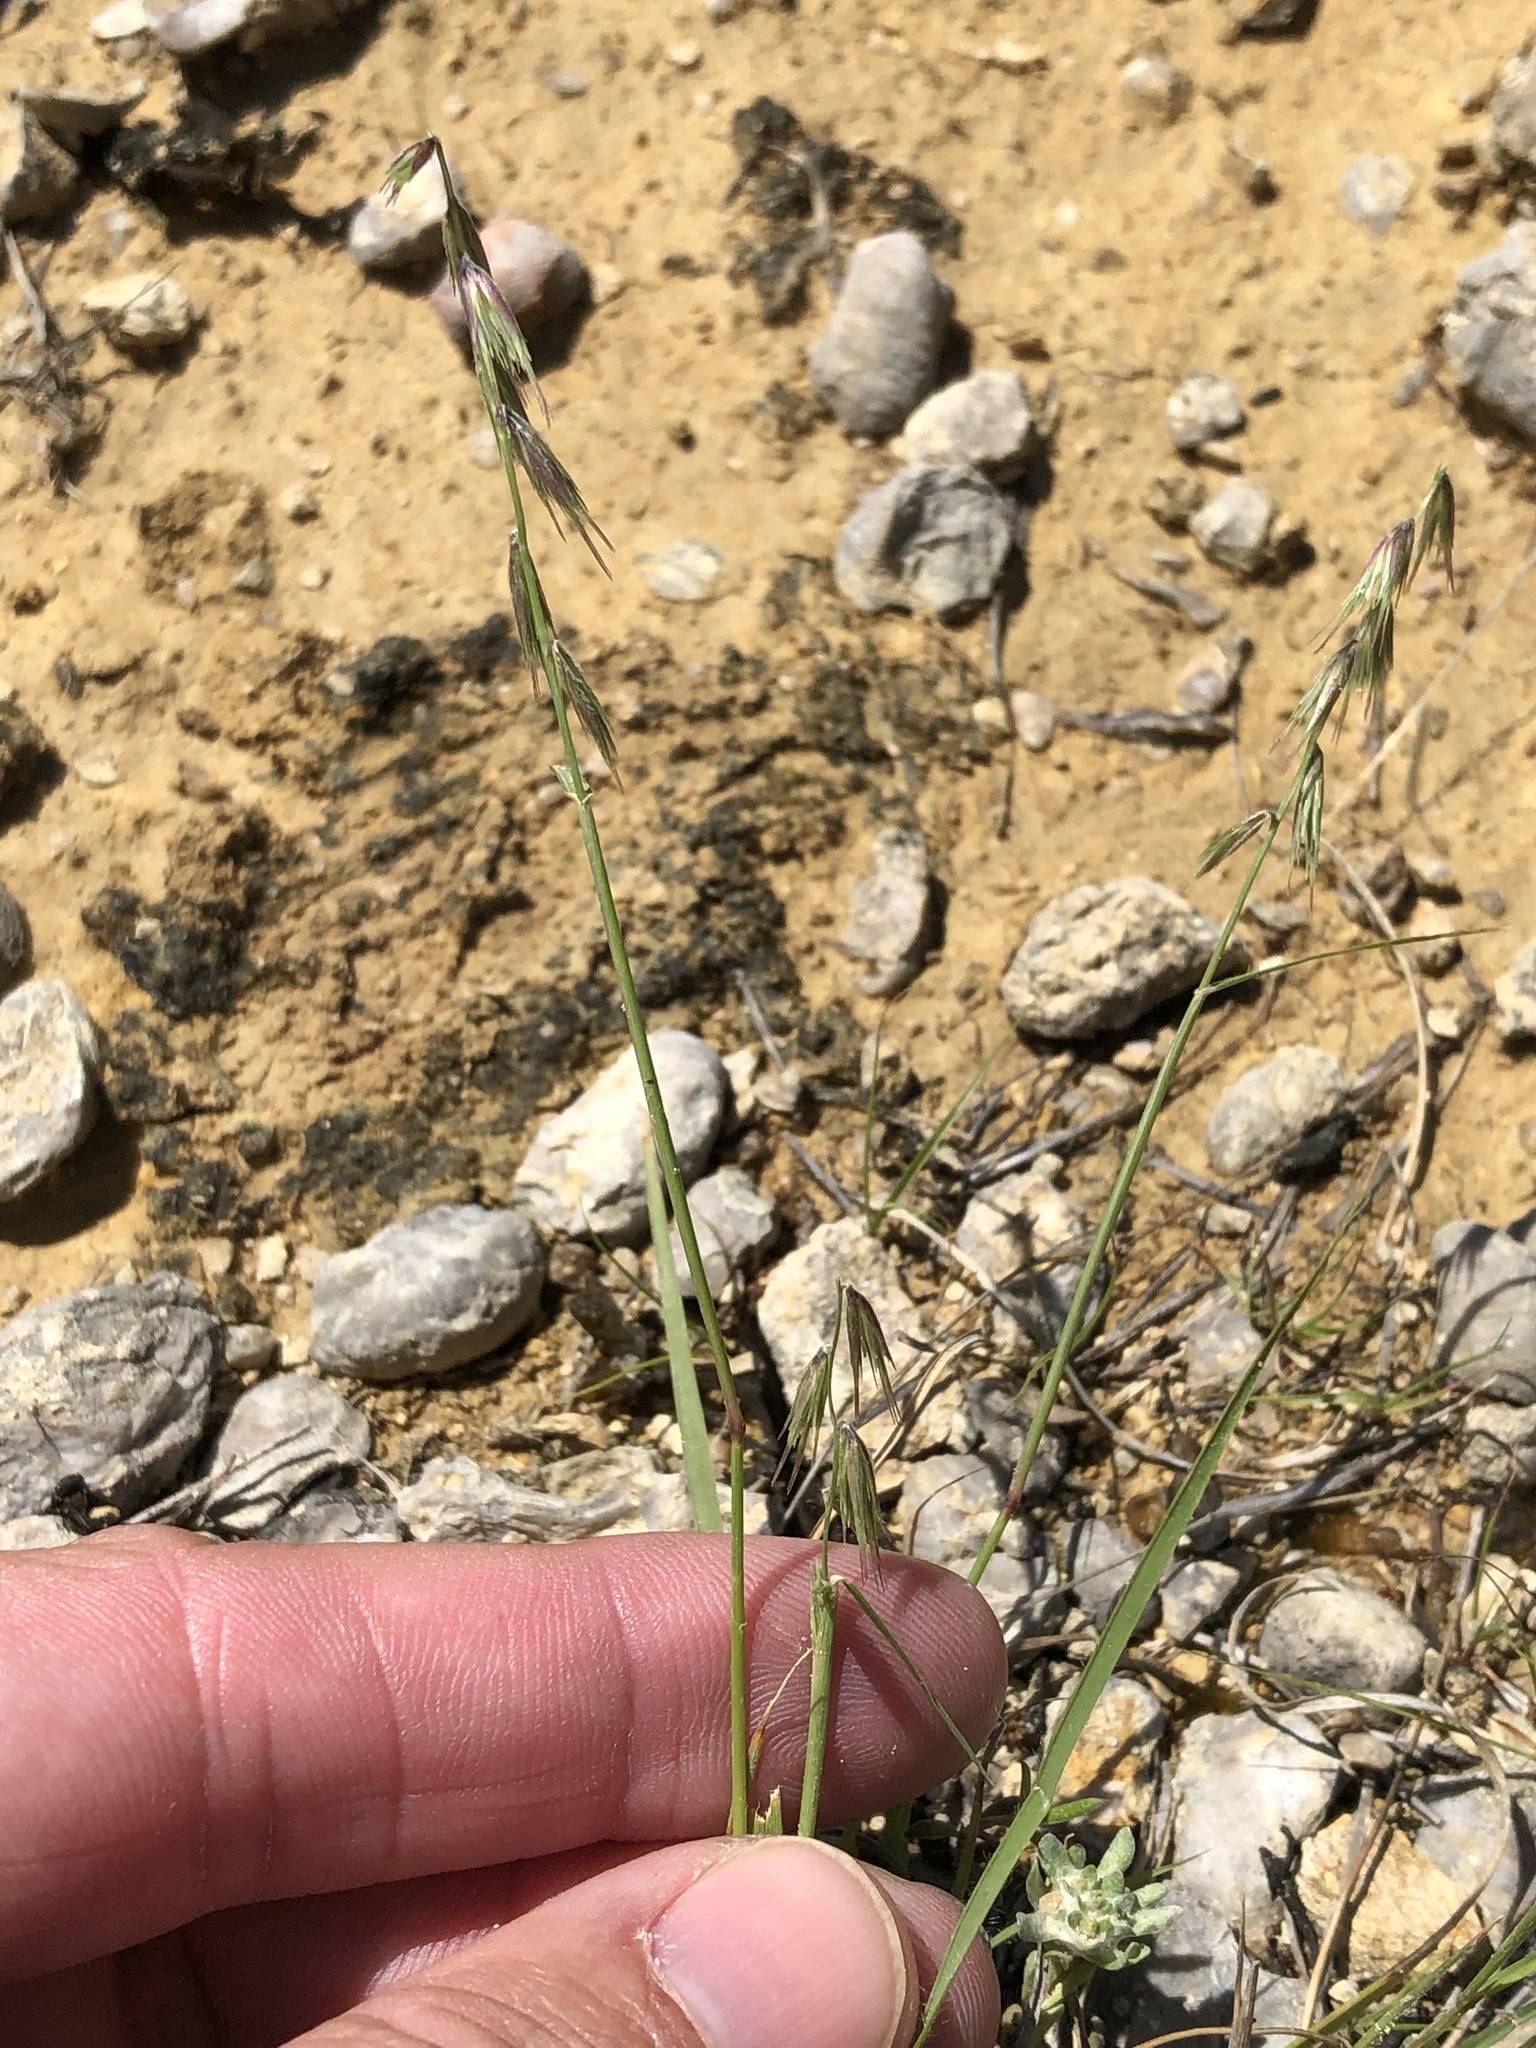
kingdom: Plantae
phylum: Tracheophyta
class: Liliopsida
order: Poales
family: Poaceae
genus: Bouteloua
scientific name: Bouteloua rigidiseta
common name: Texas grama
